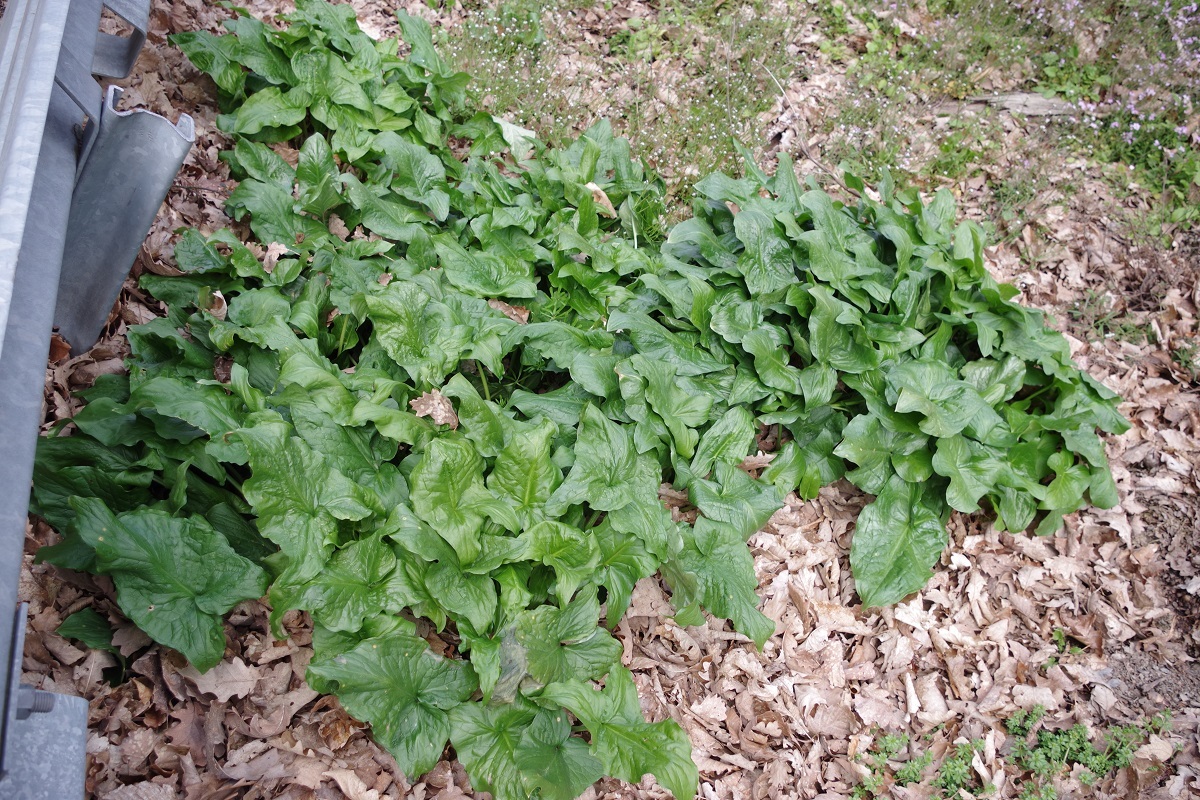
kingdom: Plantae
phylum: Tracheophyta
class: Liliopsida
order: Alismatales
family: Araceae
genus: Arum
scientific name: Arum maculatum
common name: Lords-and-ladies
